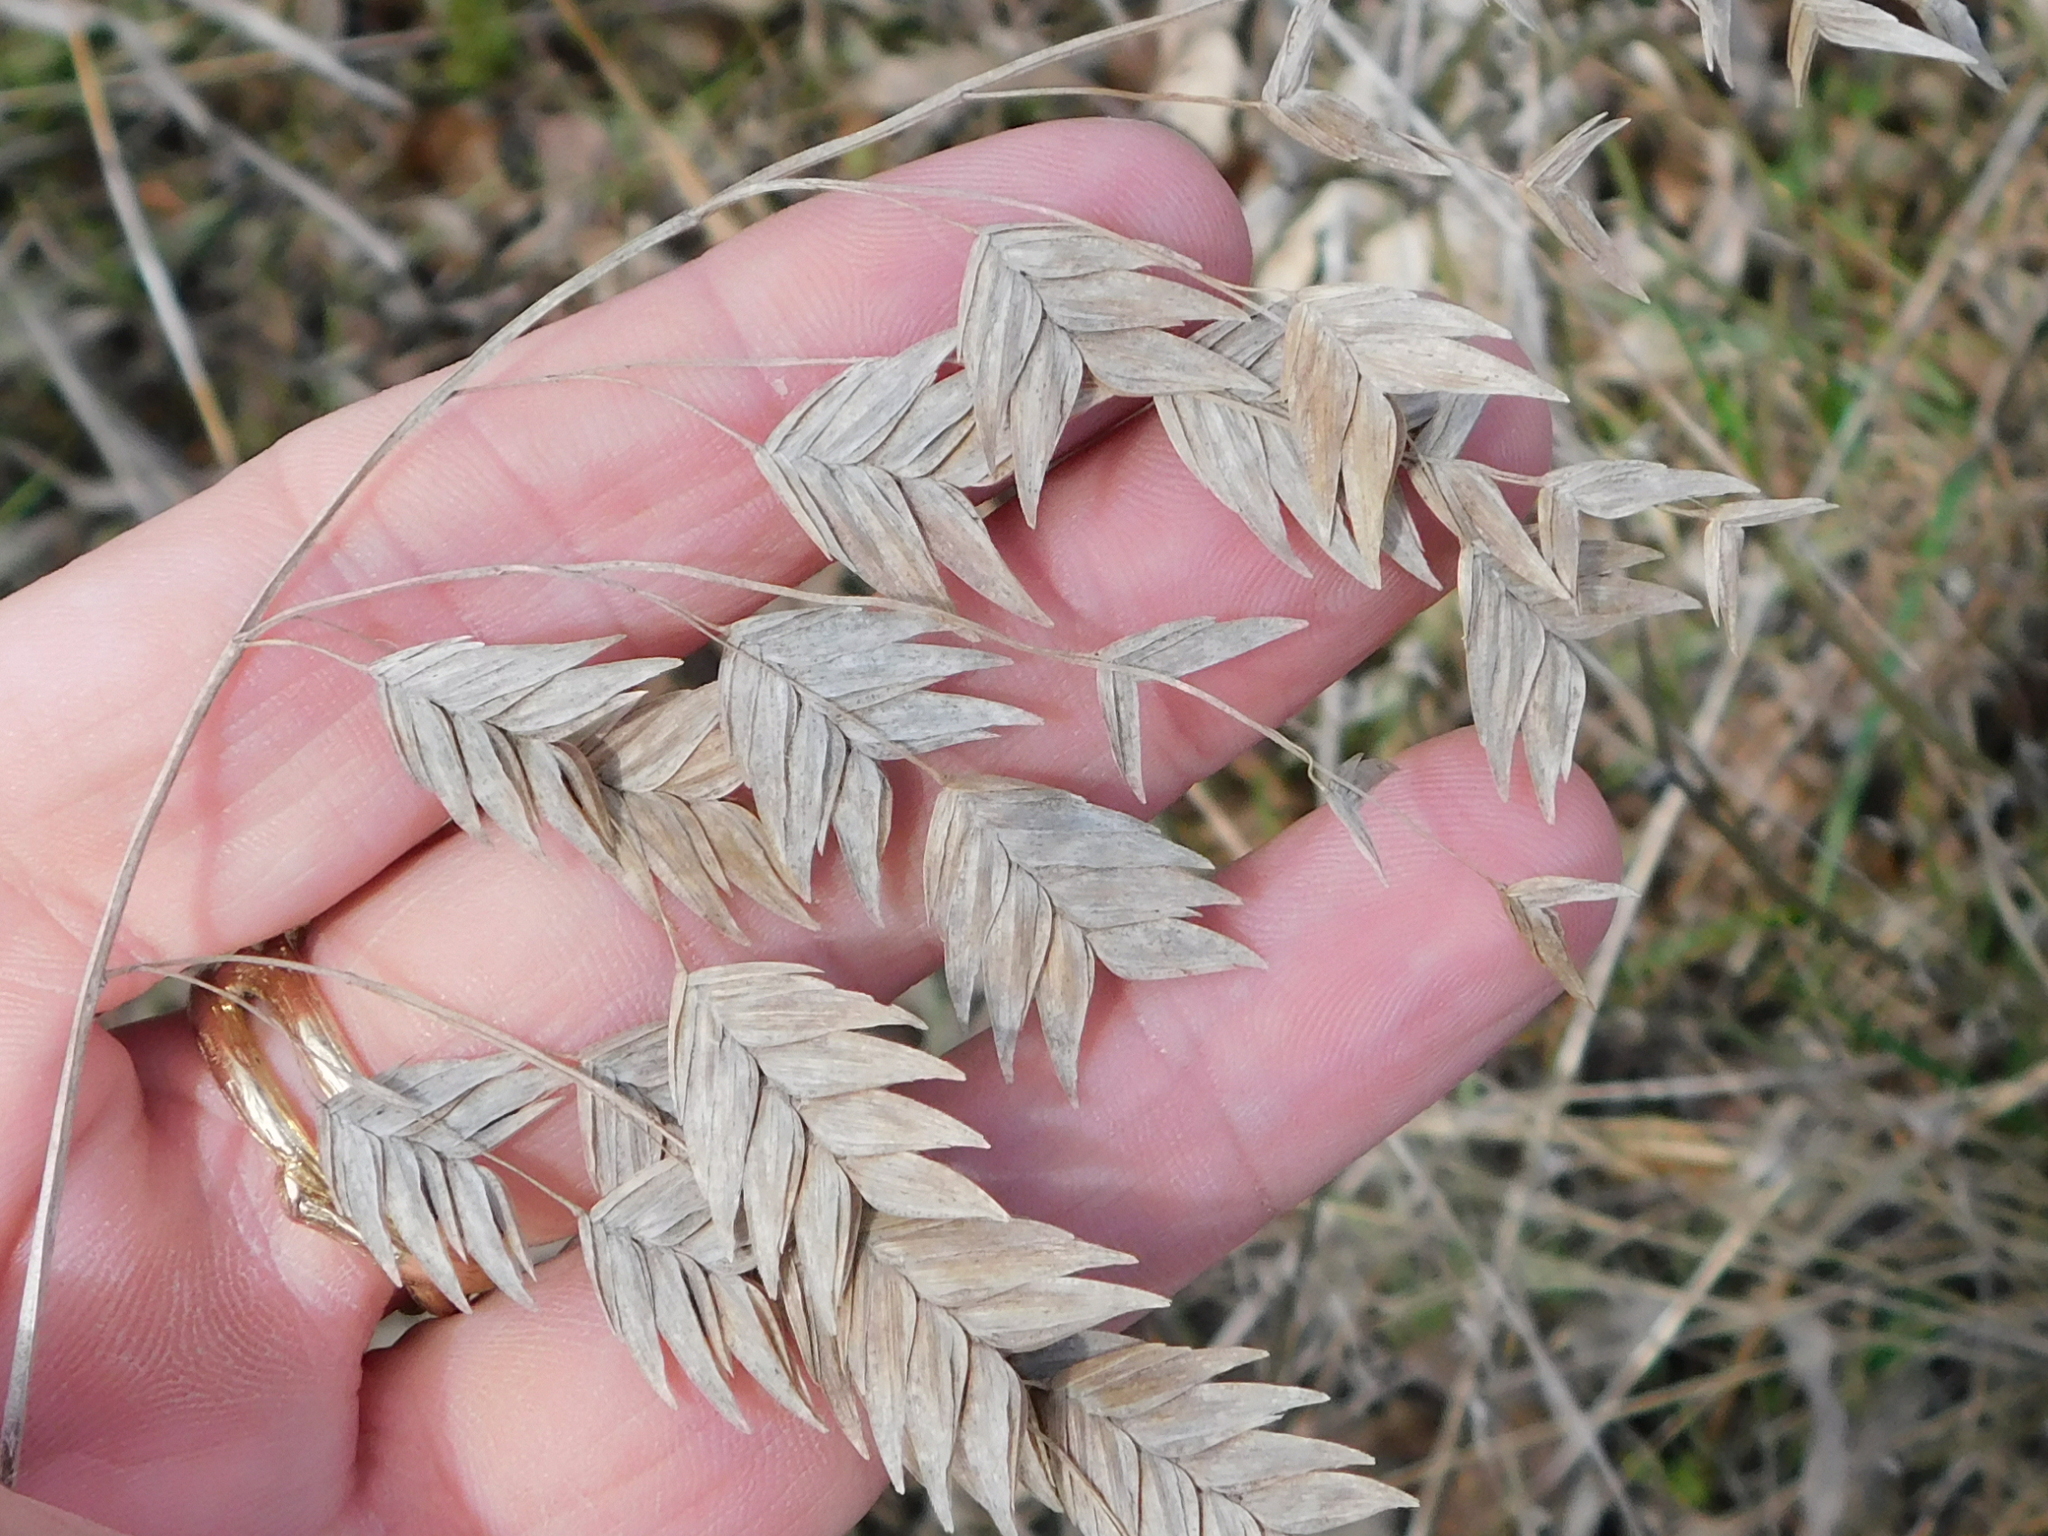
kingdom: Plantae
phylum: Tracheophyta
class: Liliopsida
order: Poales
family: Poaceae
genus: Chasmanthium
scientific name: Chasmanthium latifolium
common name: Broad-leaved chasmanthium
